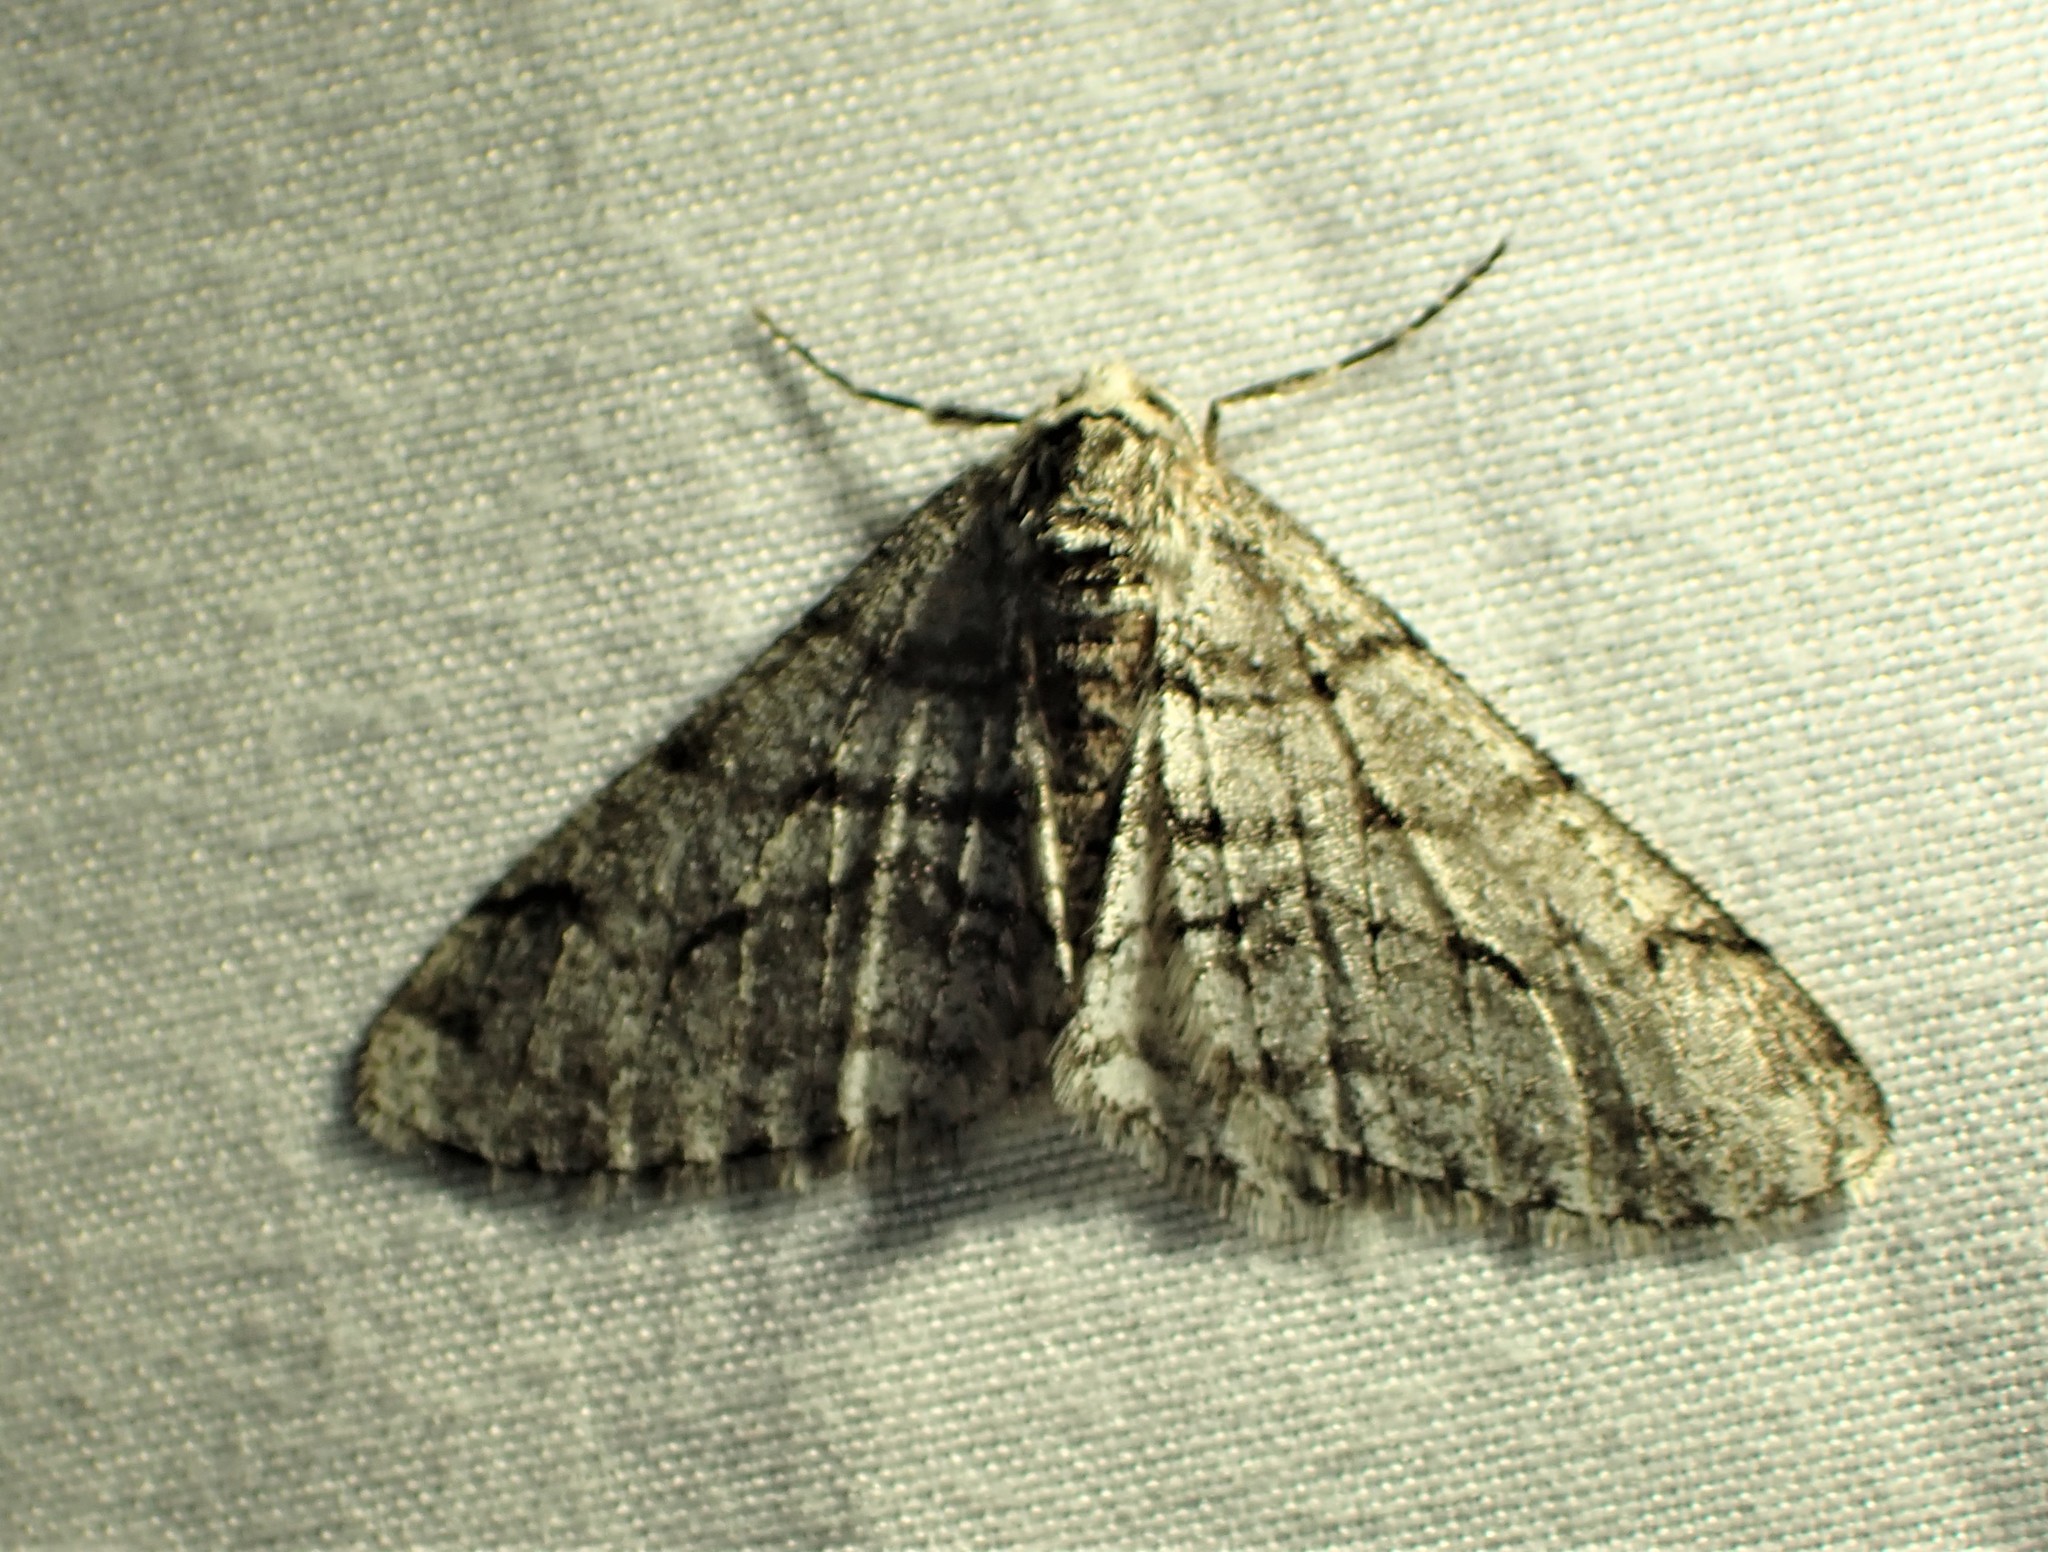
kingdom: Animalia
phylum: Arthropoda
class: Insecta
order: Lepidoptera
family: Geometridae
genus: Phigalia
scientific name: Phigalia titea
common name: Spiny looper
